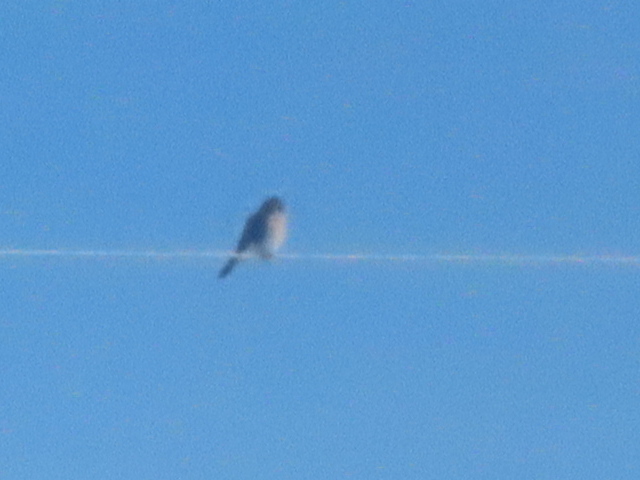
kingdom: Animalia
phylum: Chordata
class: Aves
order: Falconiformes
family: Falconidae
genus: Falco
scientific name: Falco sparverius
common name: American kestrel
